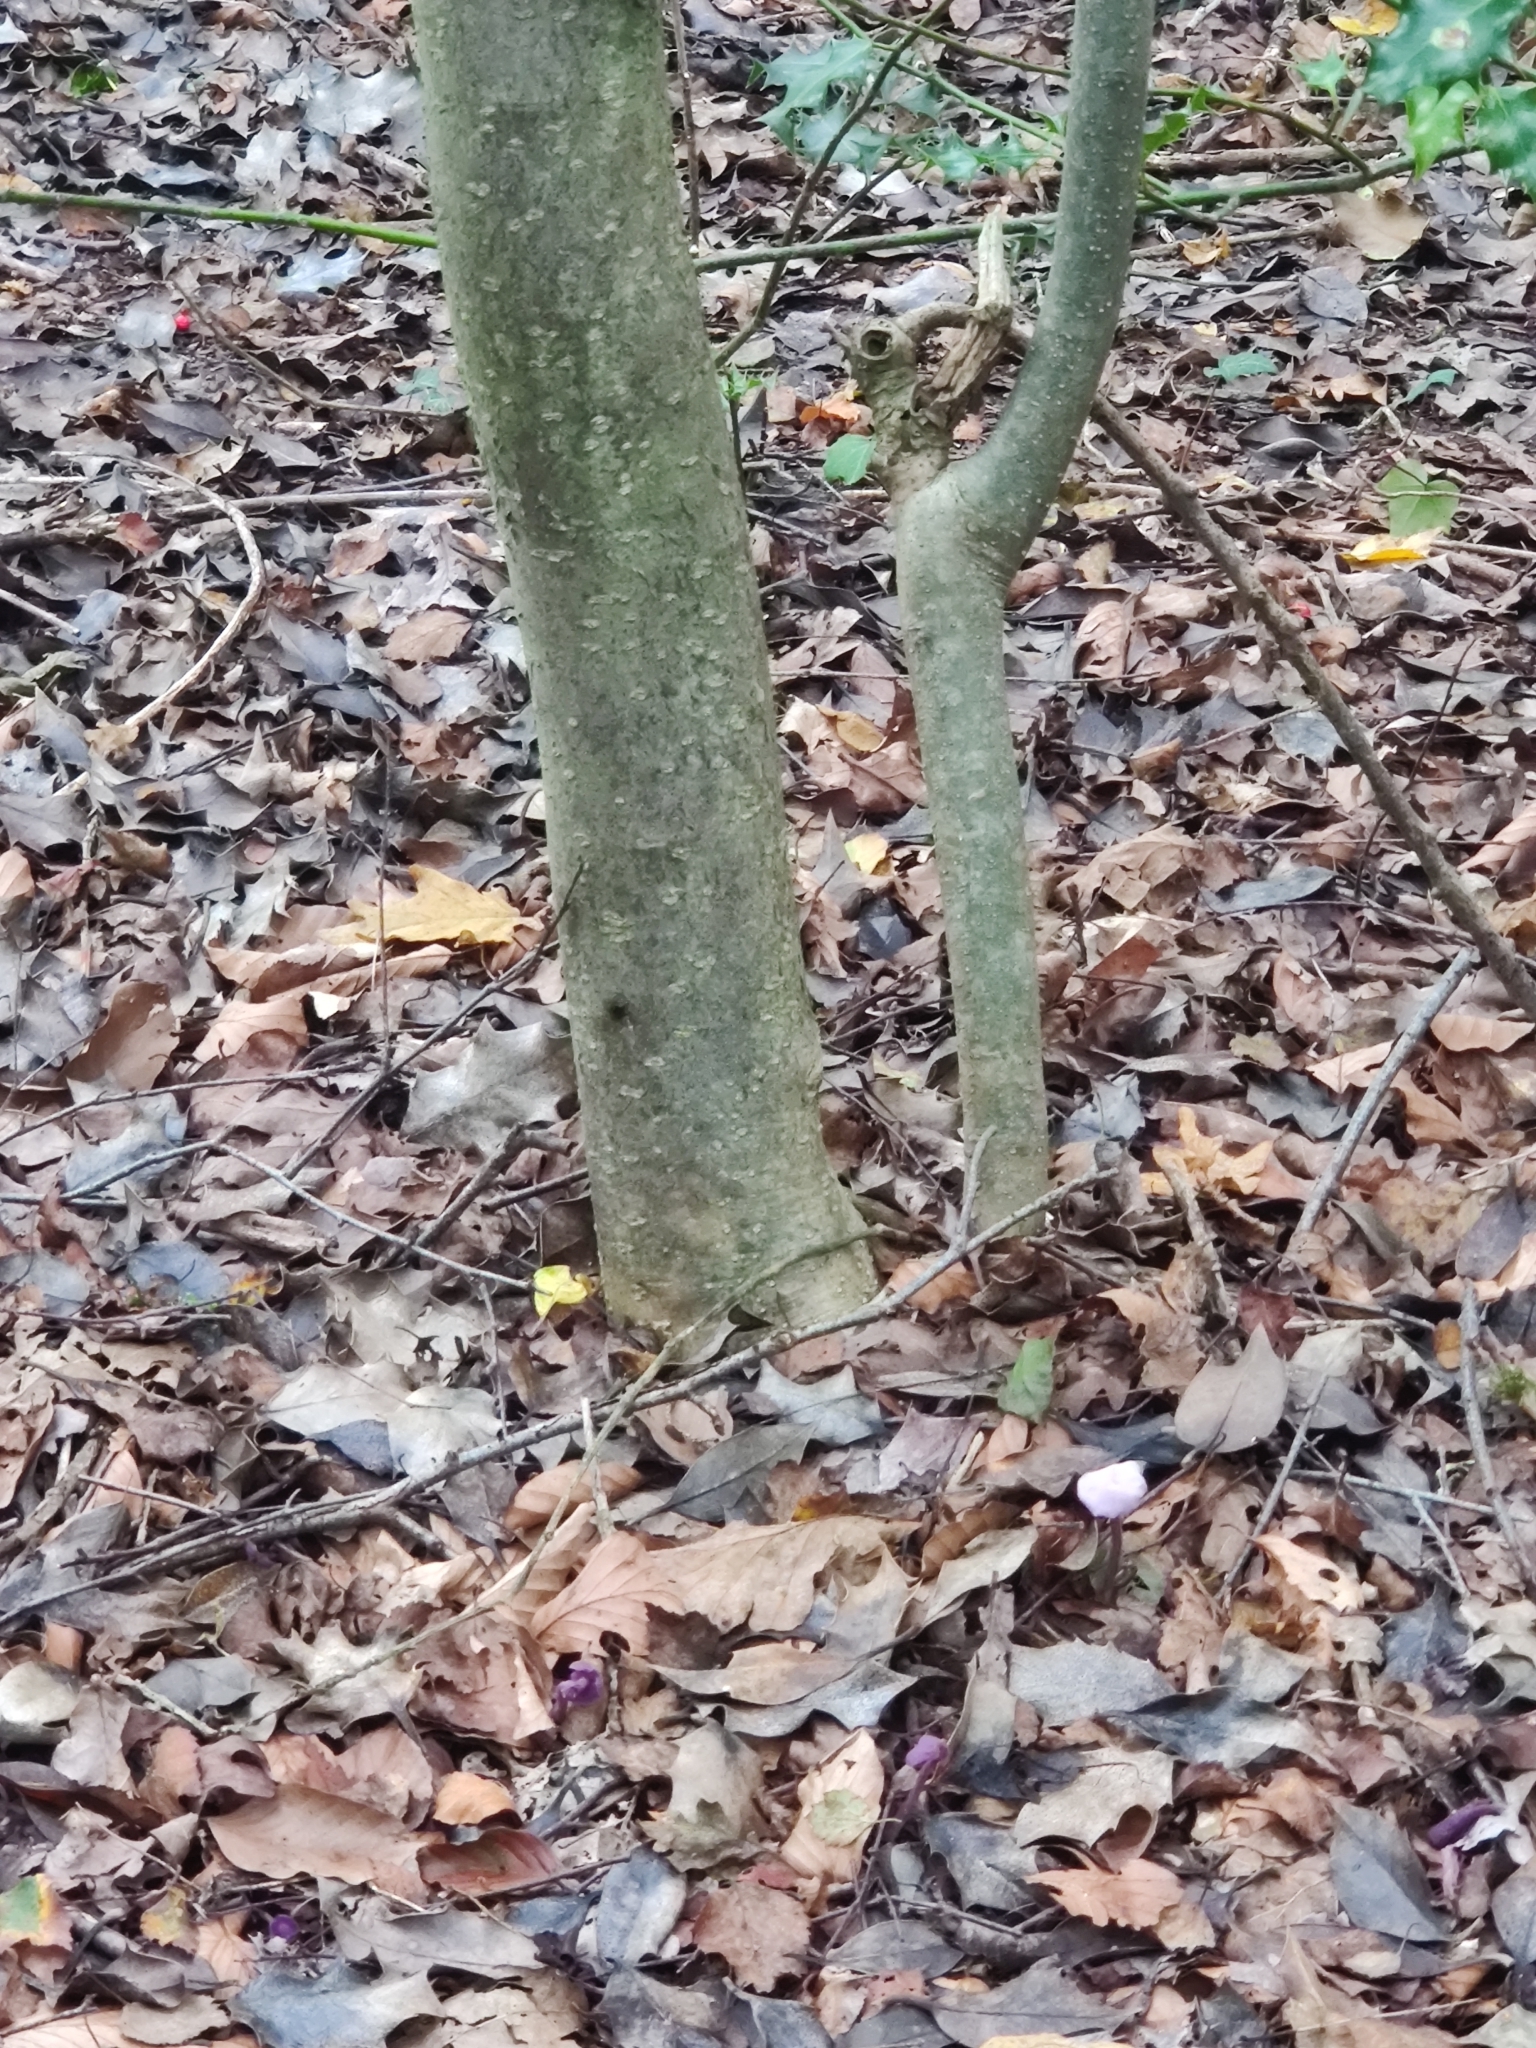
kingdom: Fungi
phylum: Basidiomycota
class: Agaricomycetes
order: Agaricales
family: Hydnangiaceae
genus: Laccaria
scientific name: Laccaria amethystina
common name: Amethyst deceiver
